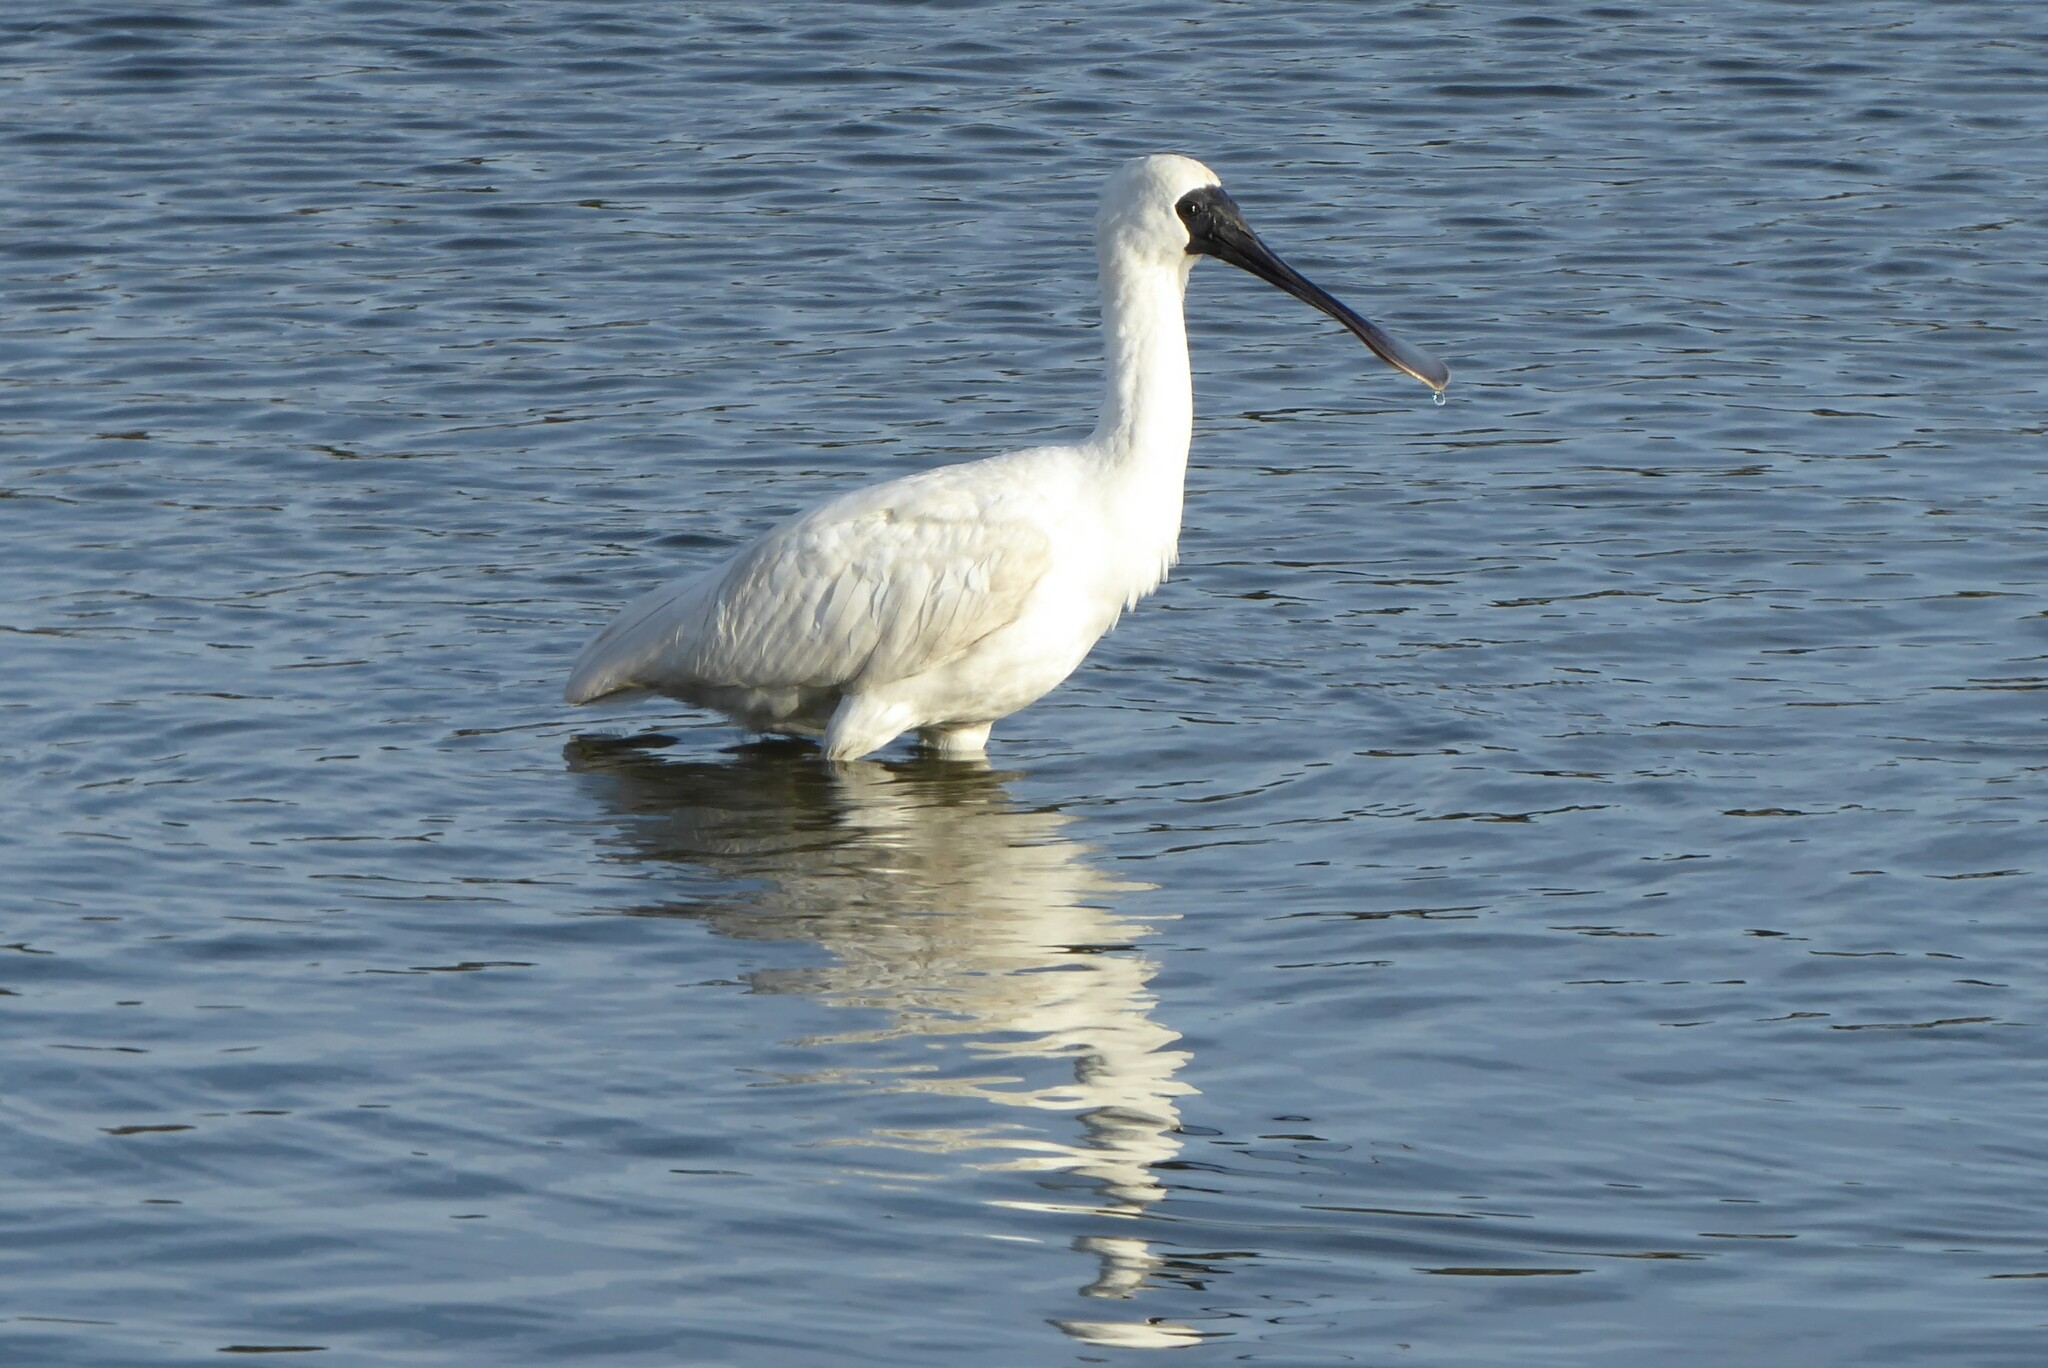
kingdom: Animalia
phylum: Chordata
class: Aves
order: Pelecaniformes
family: Threskiornithidae
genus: Platalea
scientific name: Platalea regia
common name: Royal spoonbill
